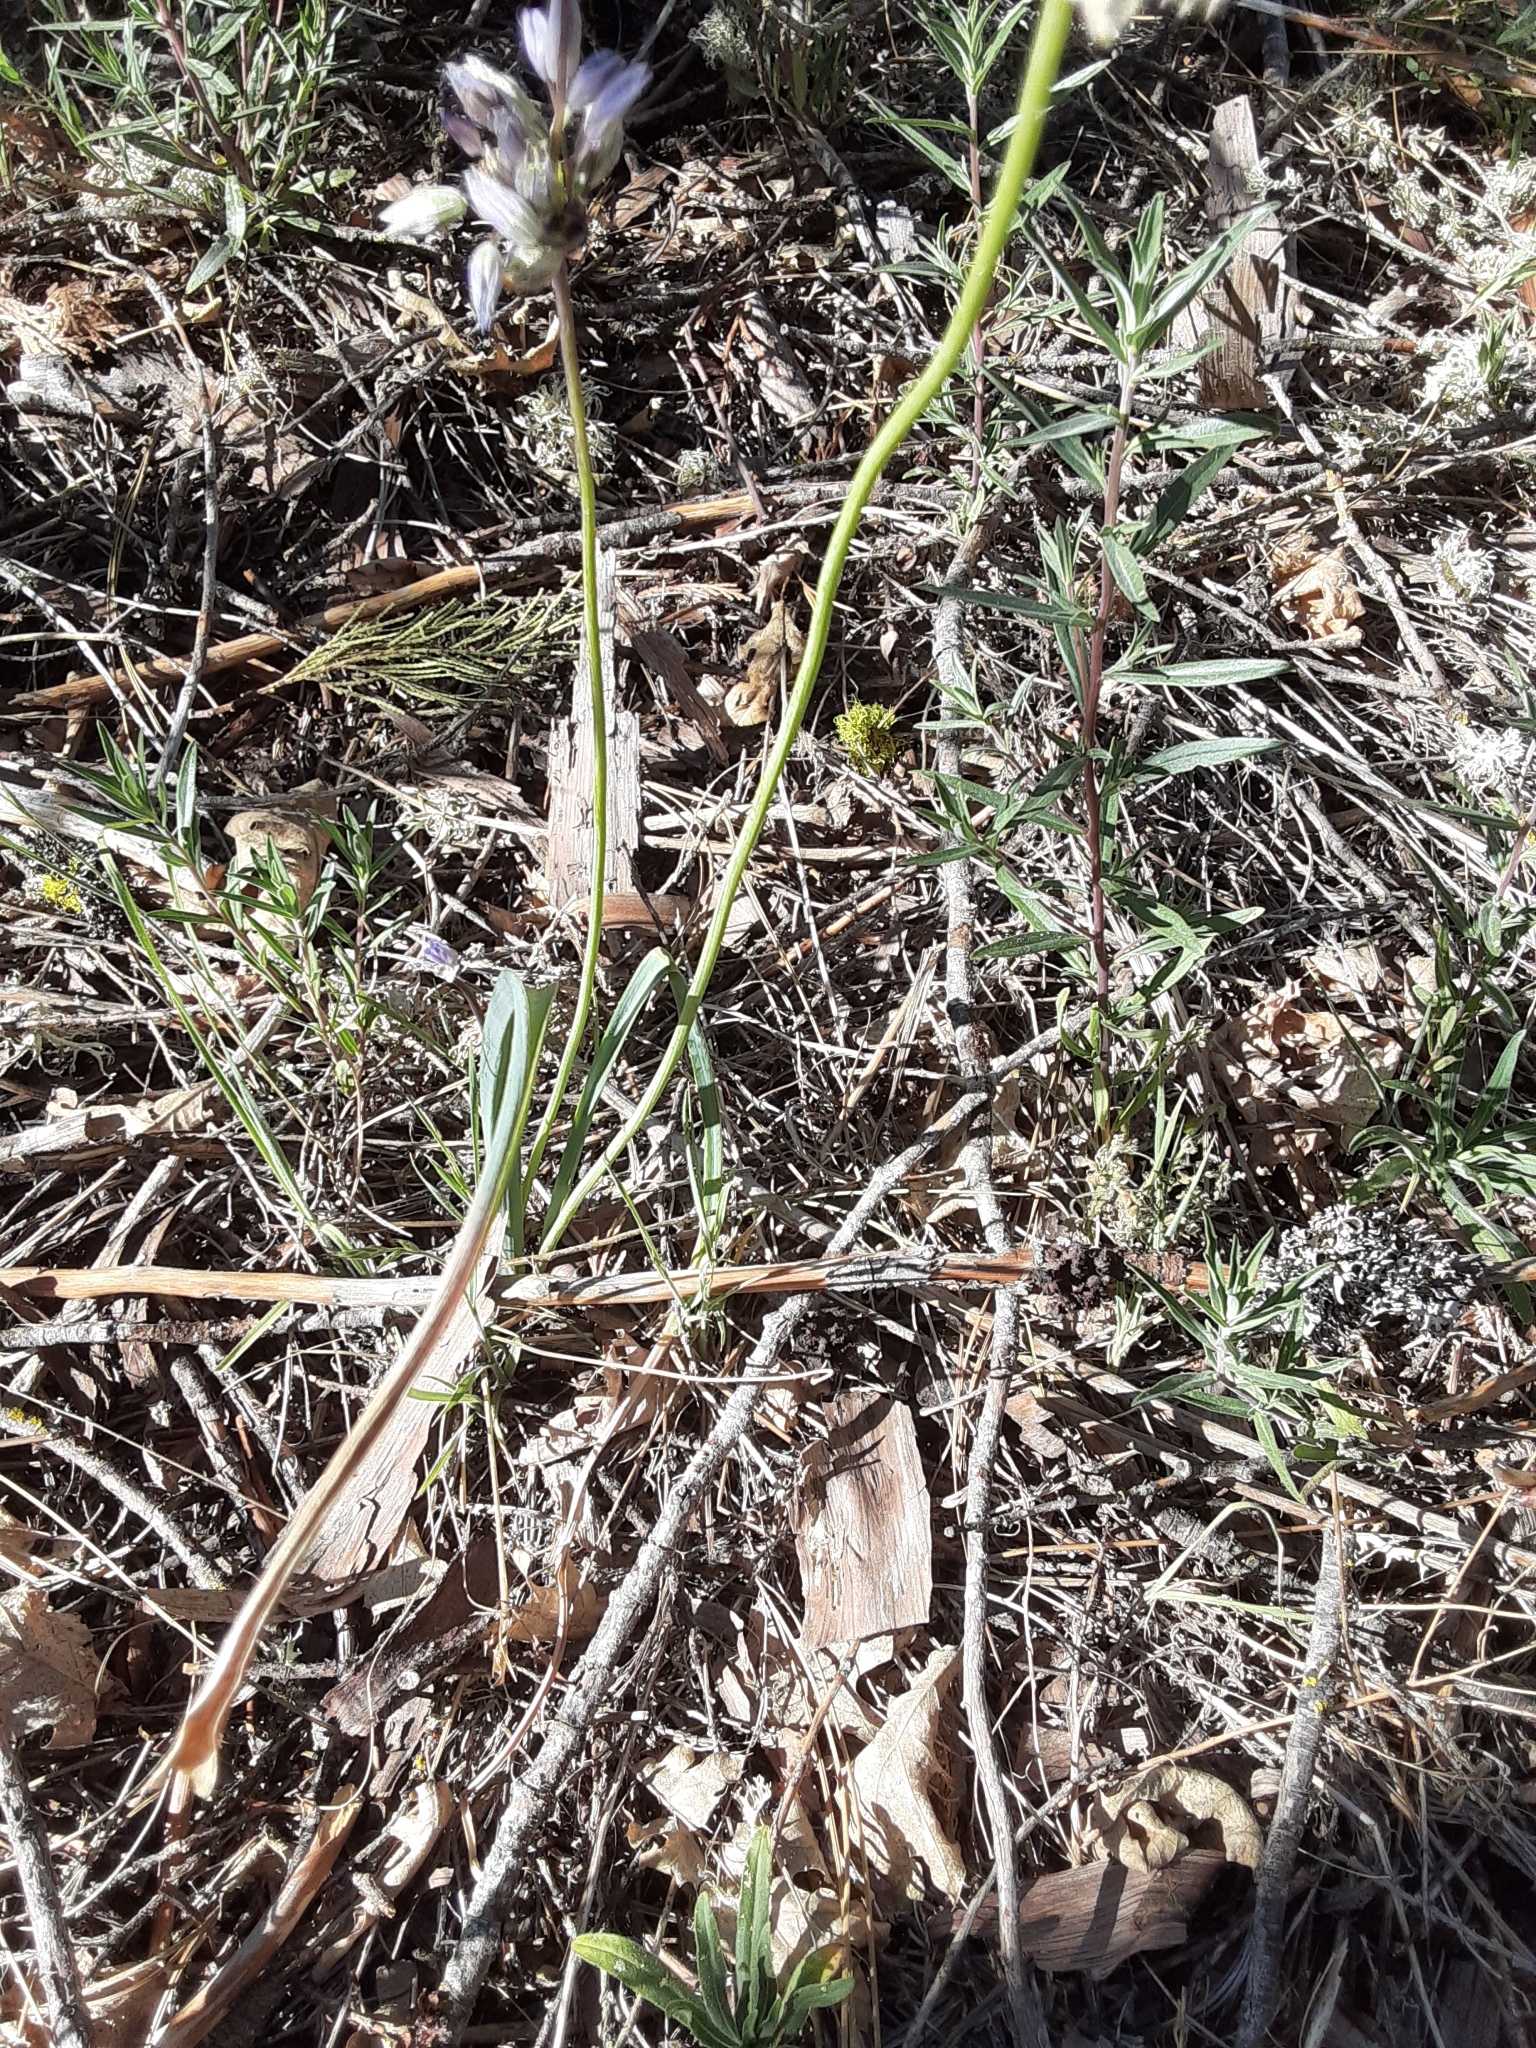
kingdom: Plantae
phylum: Tracheophyta
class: Liliopsida
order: Asparagales
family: Asparagaceae
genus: Dipterostemon
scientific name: Dipterostemon capitatus
